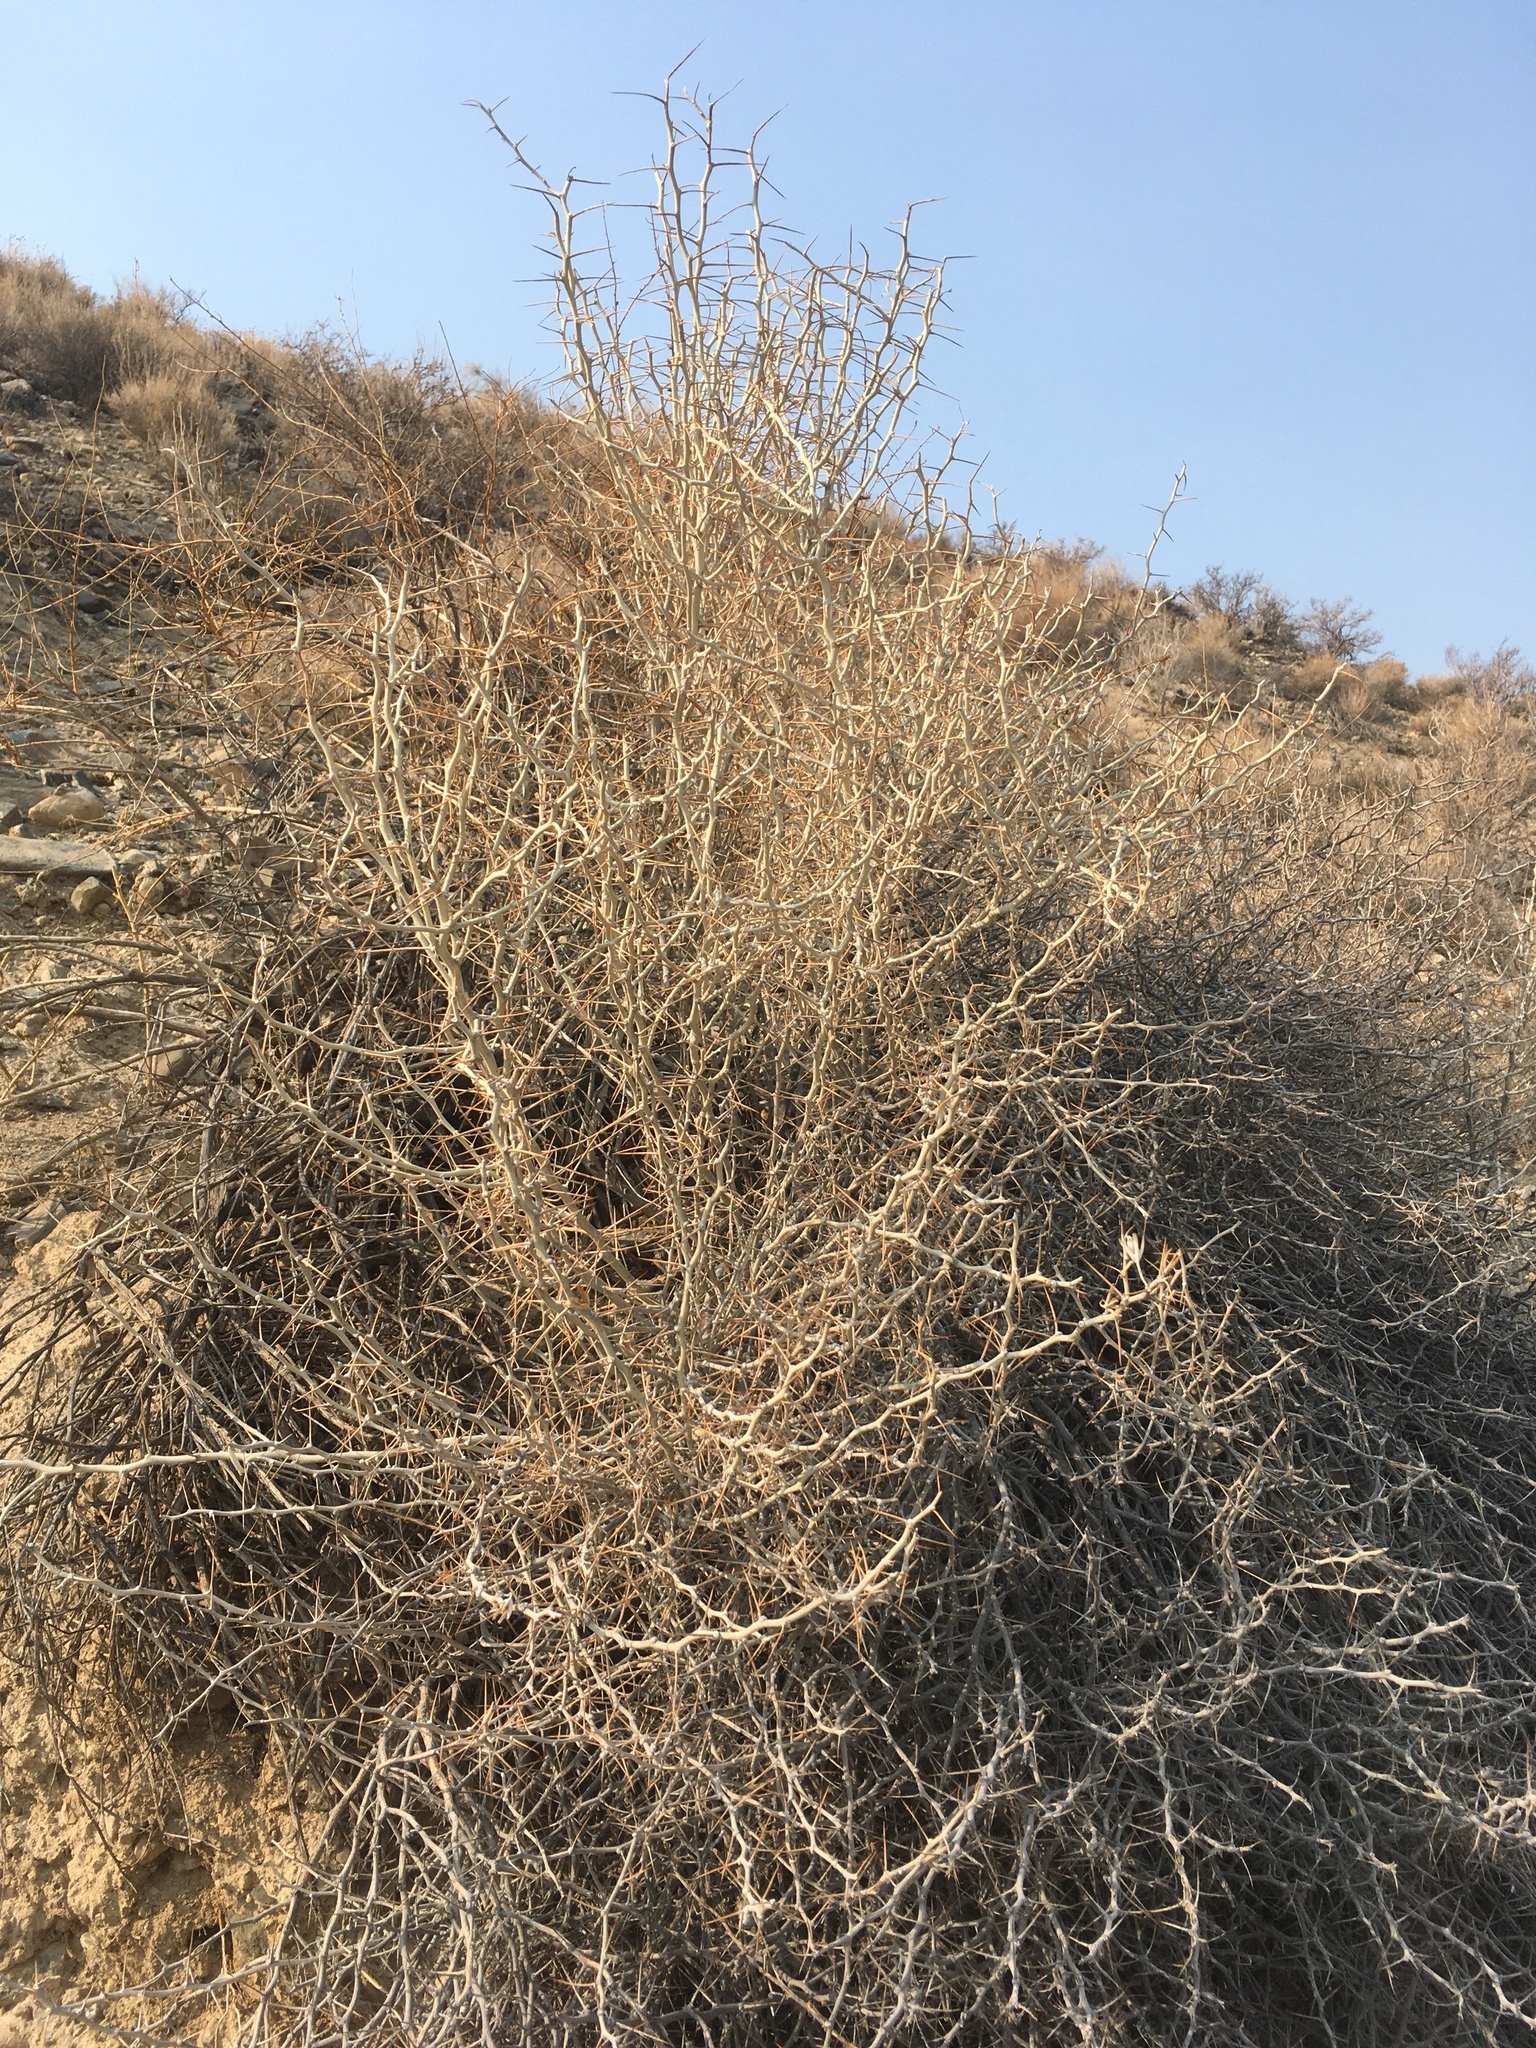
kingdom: Plantae
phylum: Tracheophyta
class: Magnoliopsida
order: Asterales
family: Asteraceae
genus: Tetradymia
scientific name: Tetradymia axillaris
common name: Long-spine horsebrush
